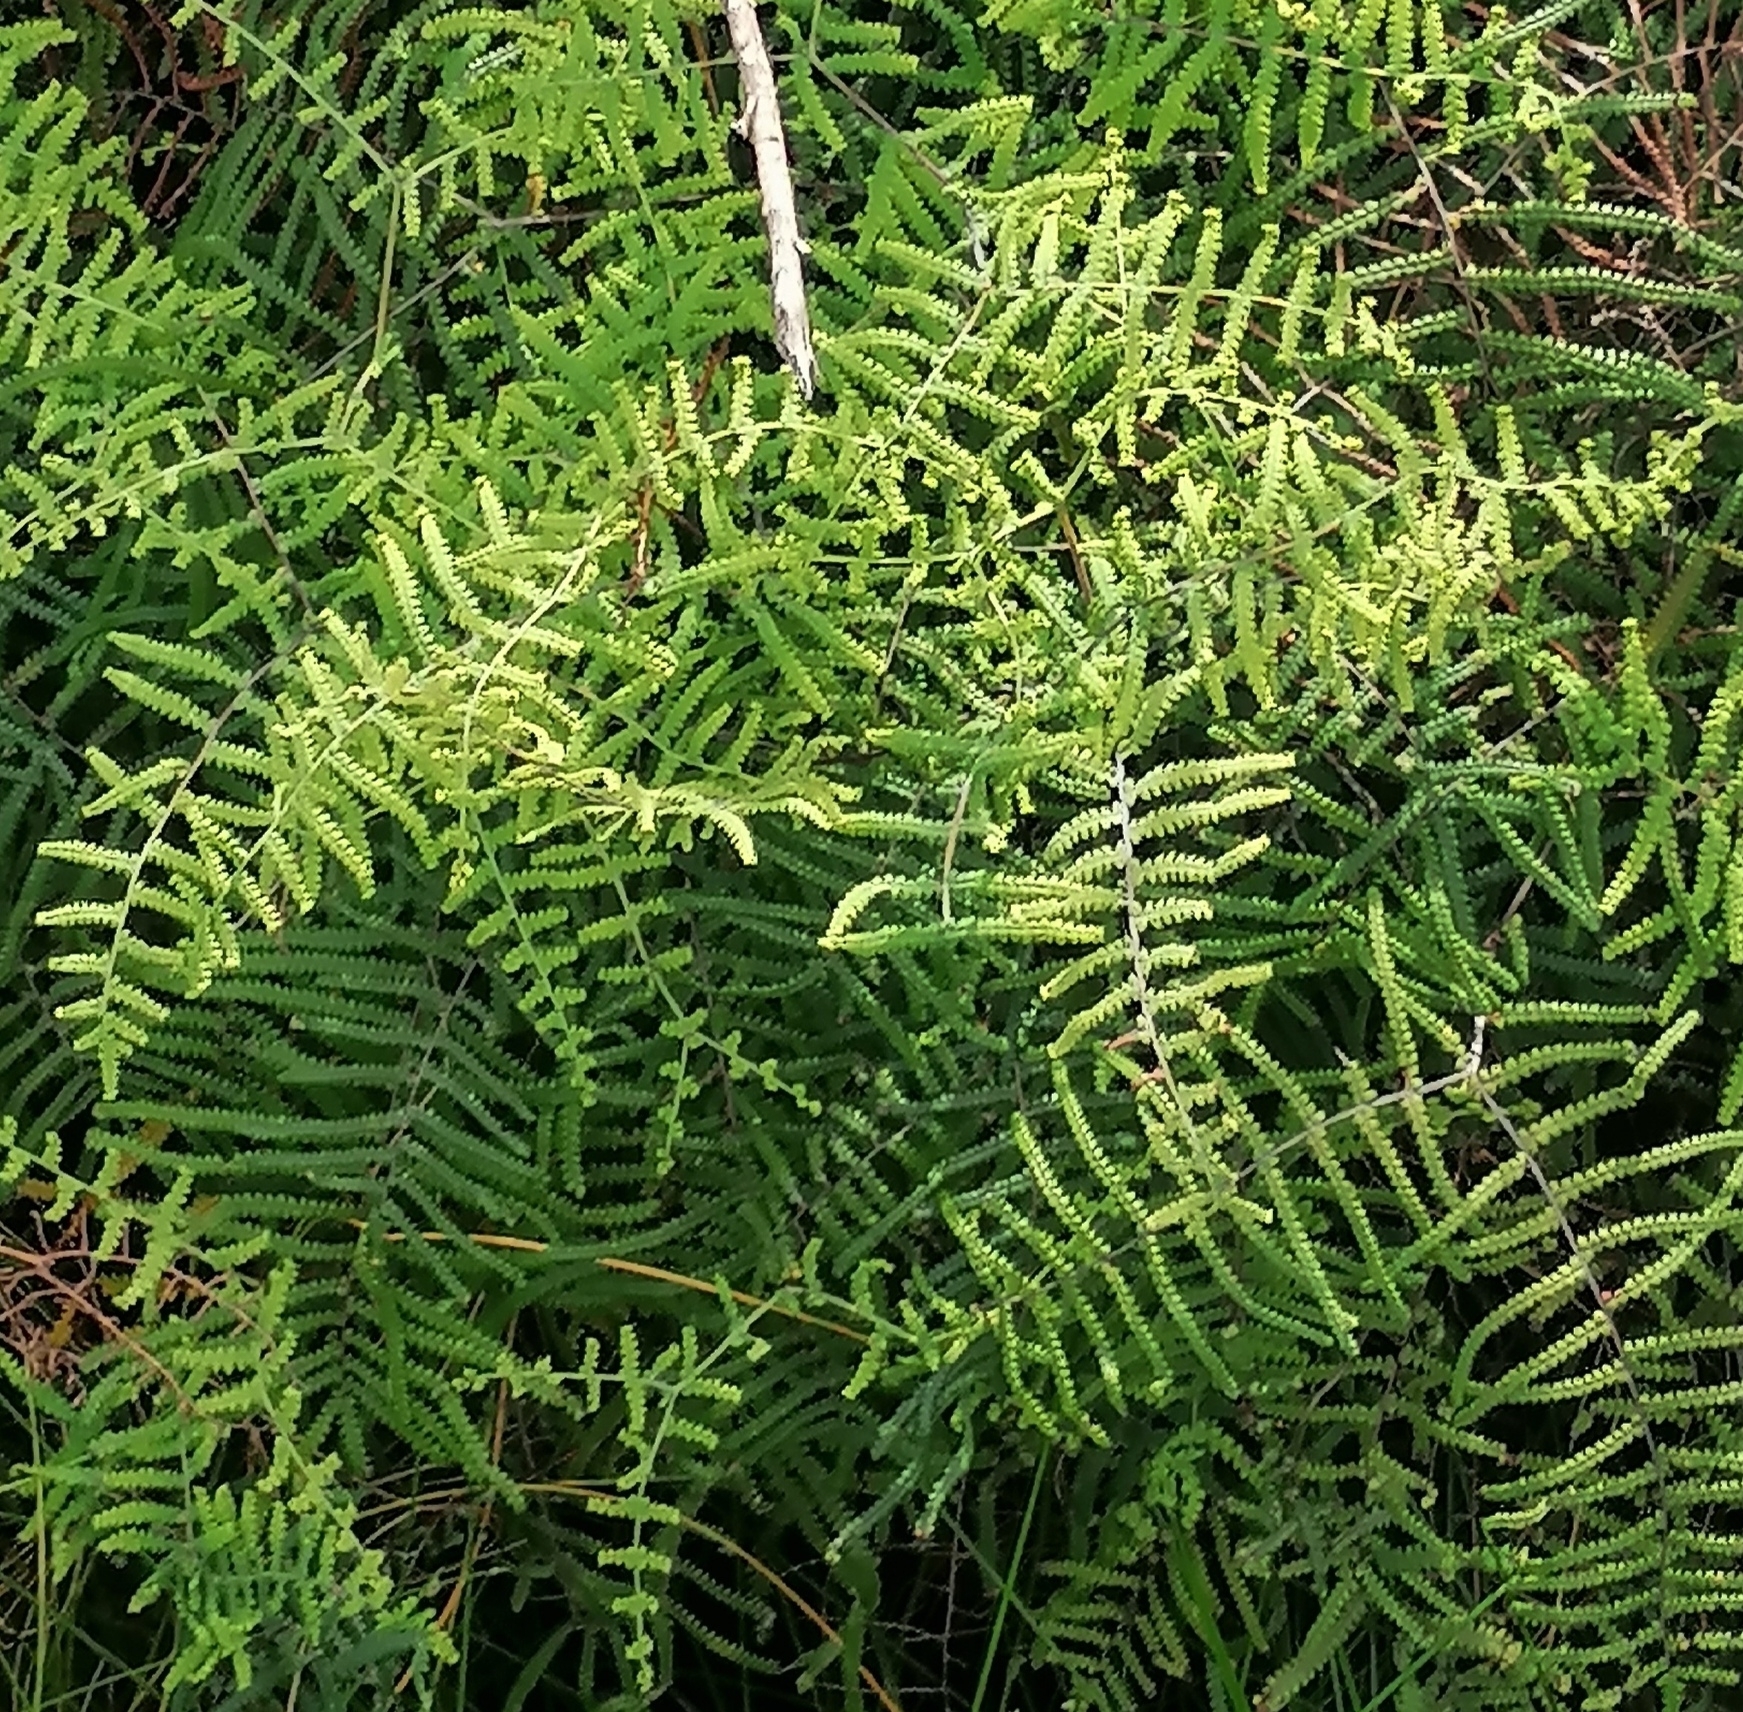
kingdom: Plantae
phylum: Tracheophyta
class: Polypodiopsida
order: Gleicheniales
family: Gleicheniaceae
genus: Gleichenia
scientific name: Gleichenia polypodioides
